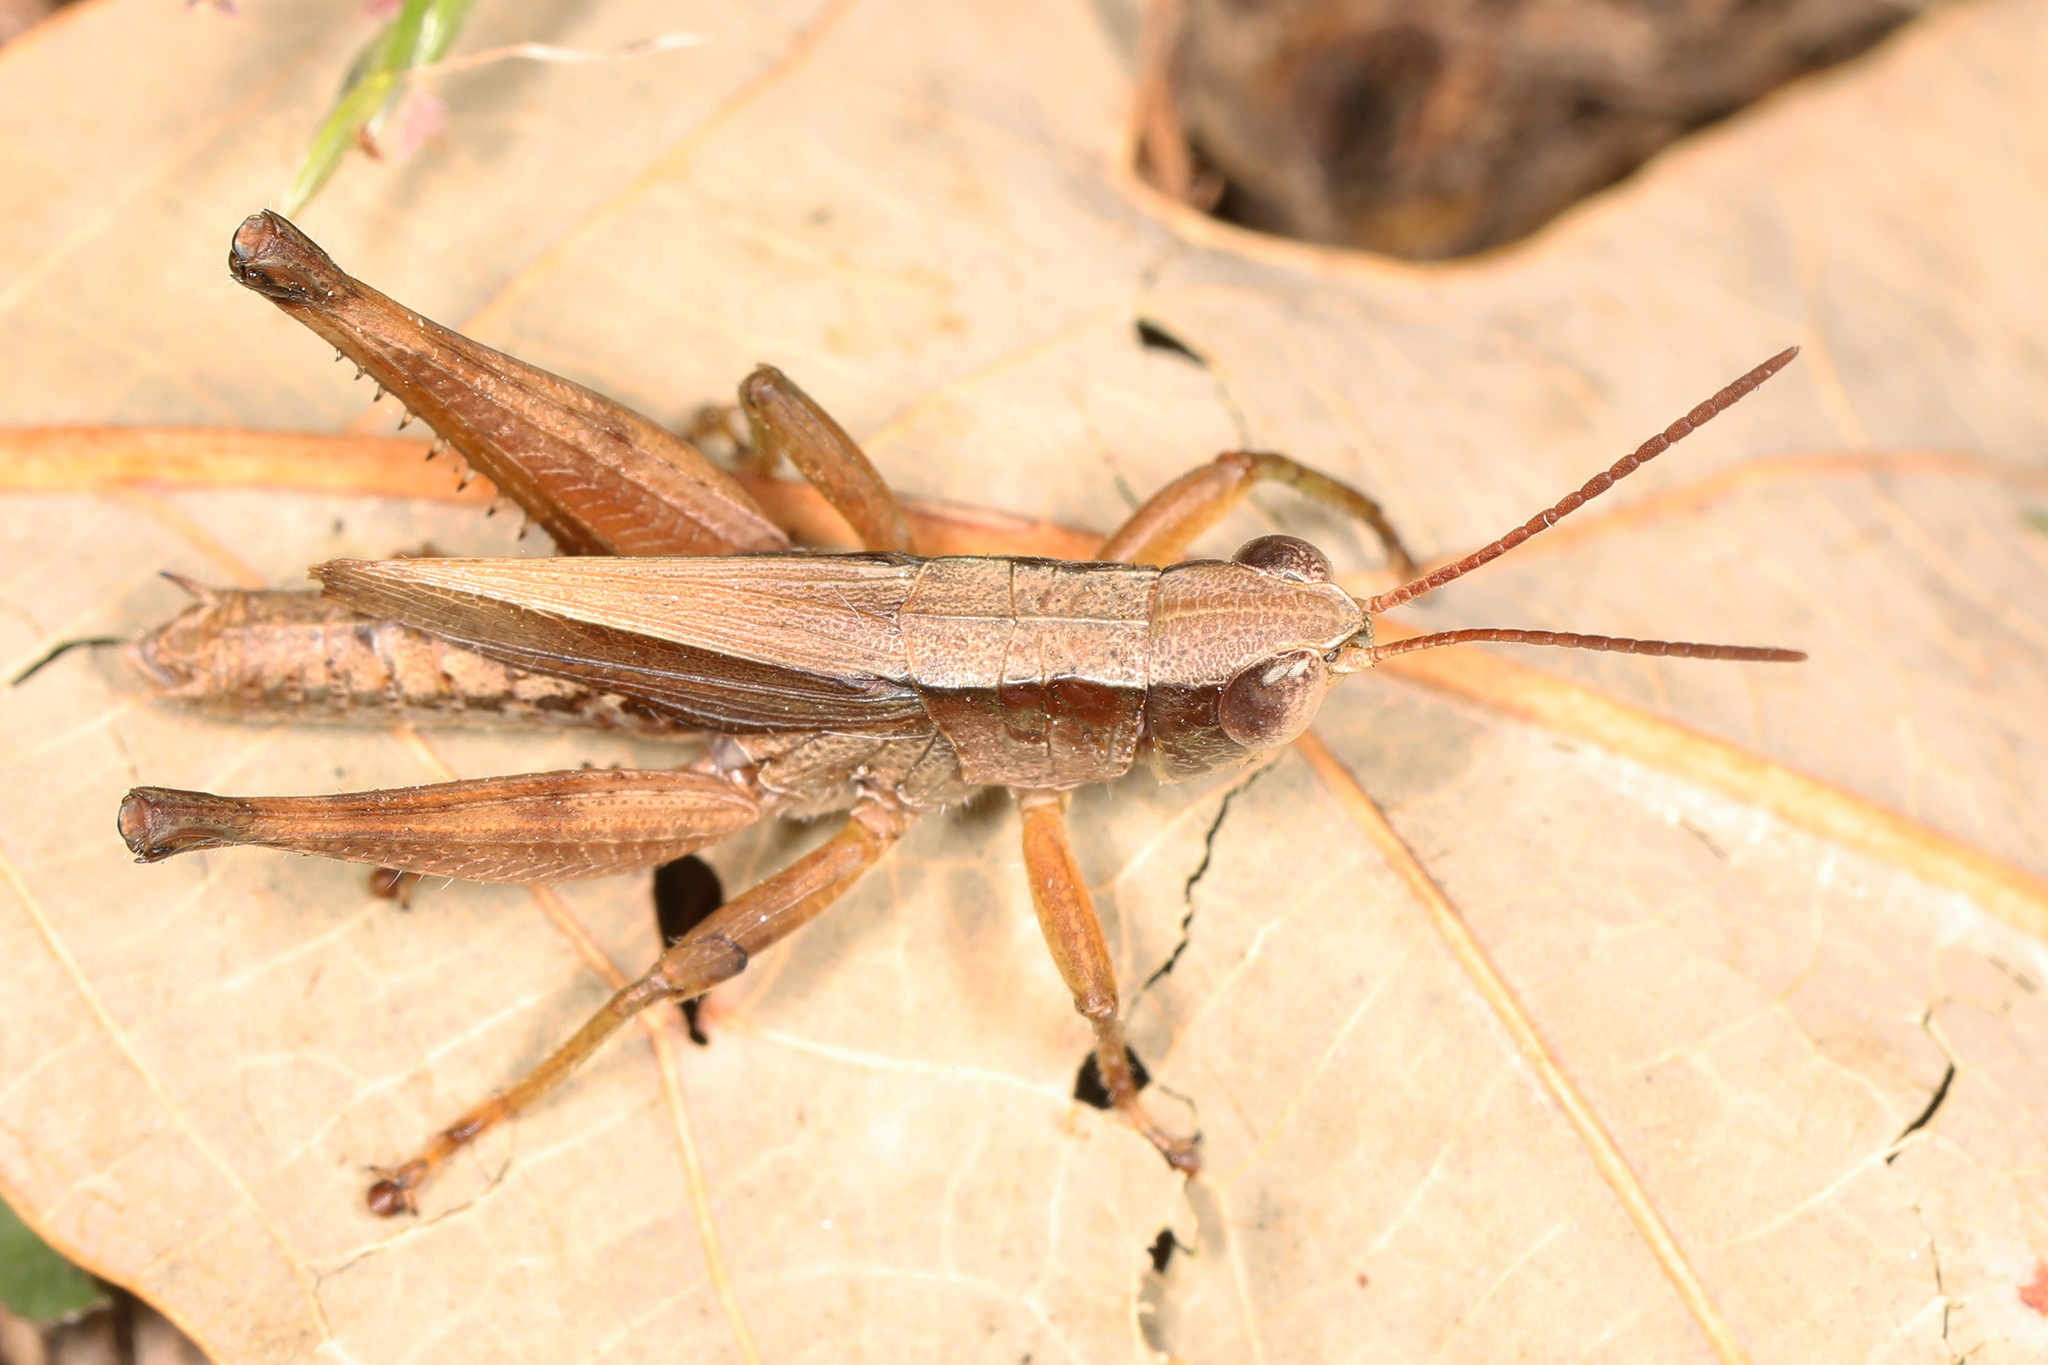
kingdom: Animalia
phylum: Arthropoda
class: Insecta
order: Orthoptera
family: Acrididae
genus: Dichromorpha
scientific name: Dichromorpha viridis
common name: Short-winged green grasshopper
